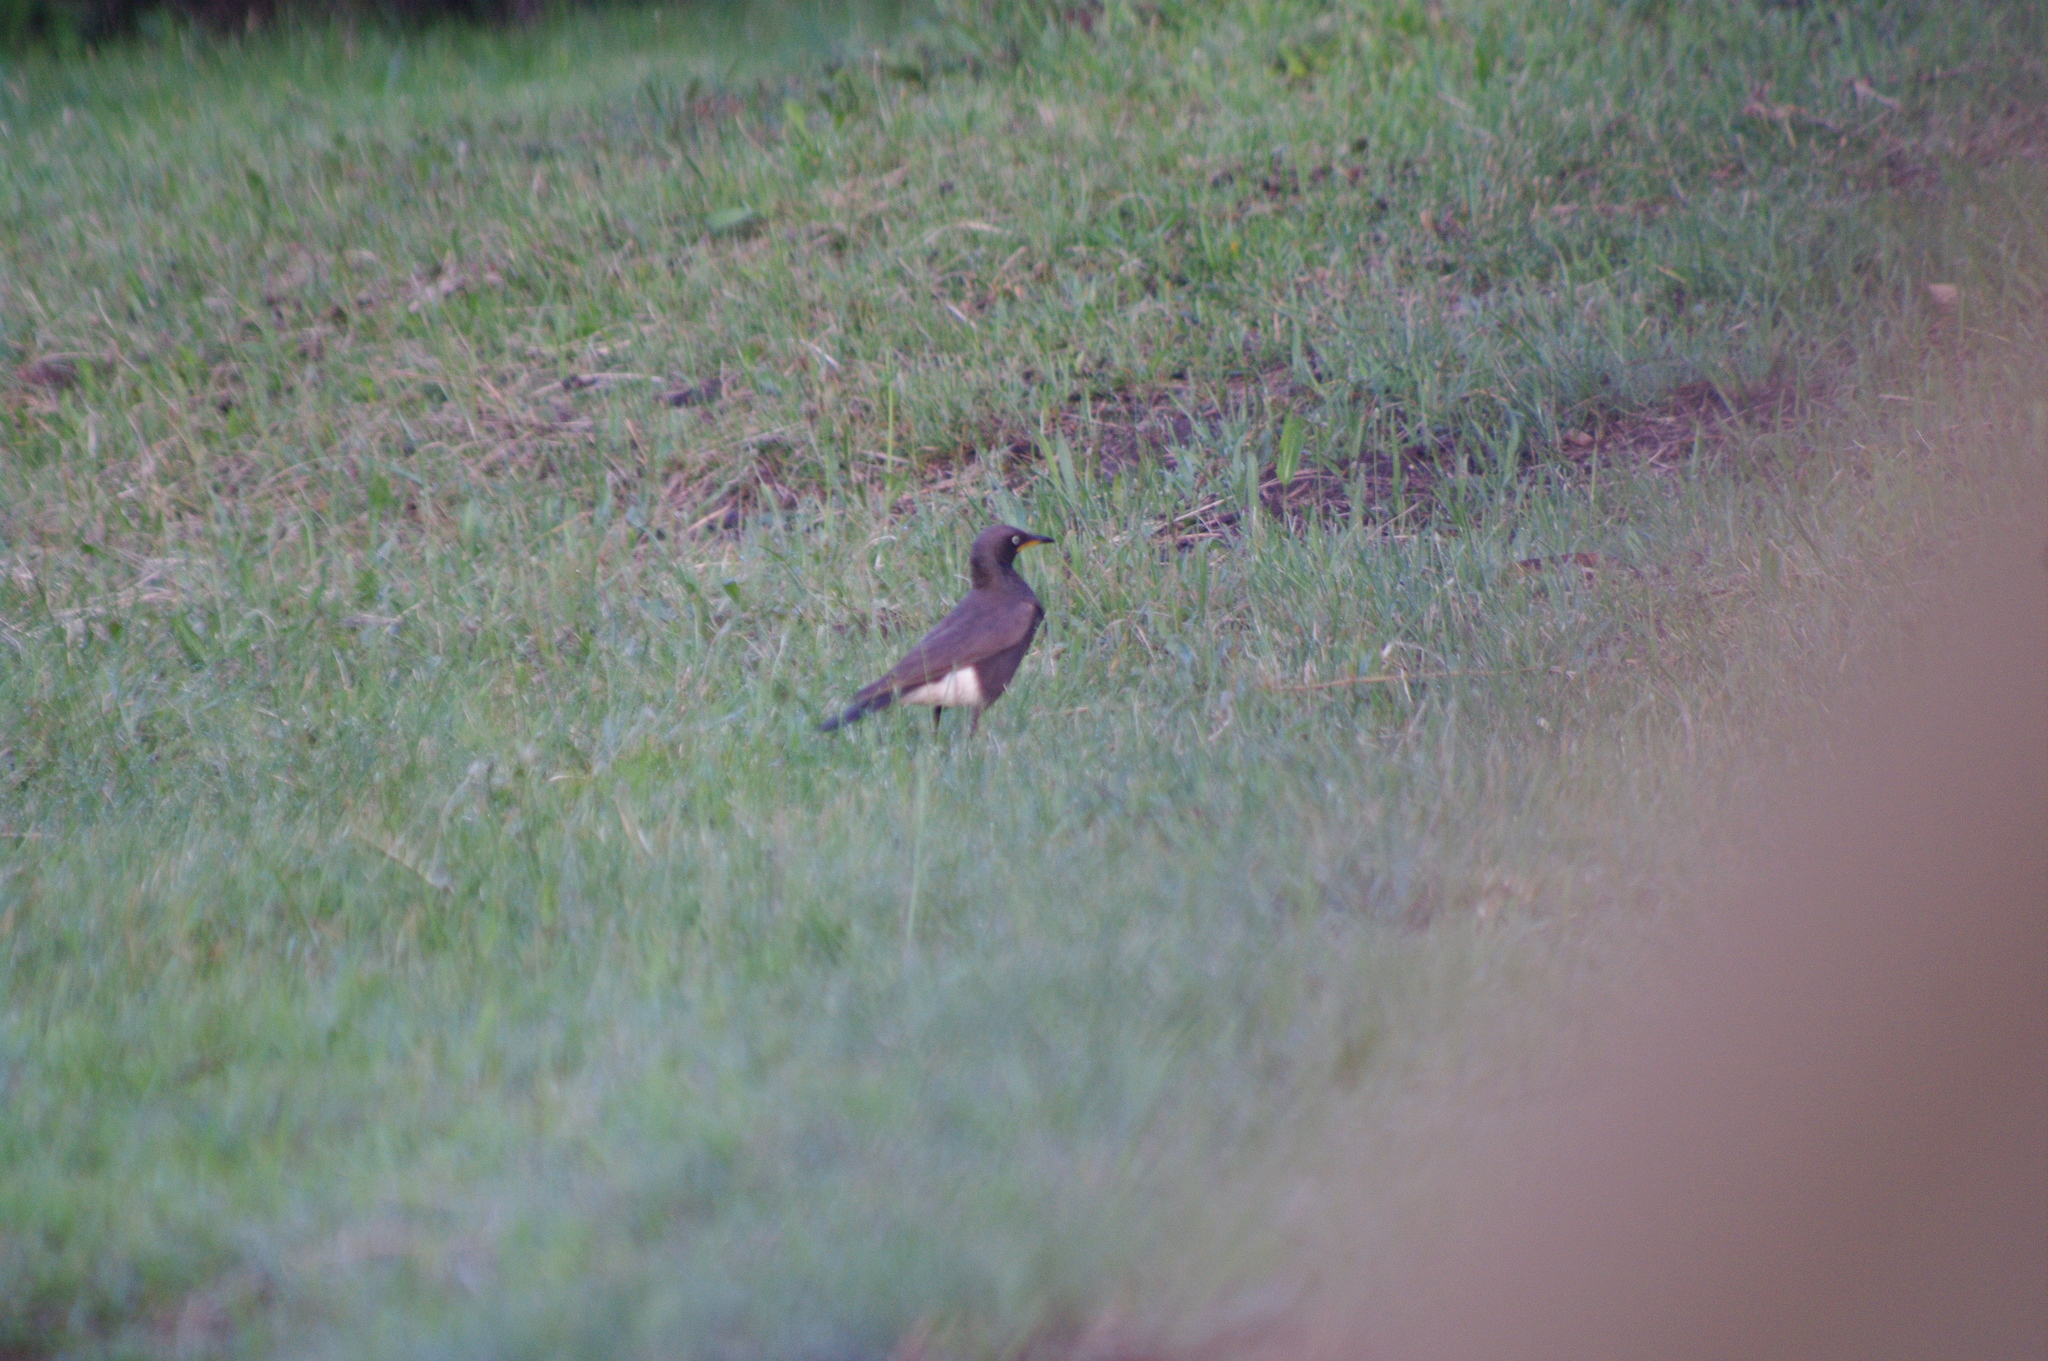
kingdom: Animalia
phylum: Chordata
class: Aves
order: Passeriformes
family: Sturnidae
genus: Lamprotornis
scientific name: Lamprotornis bicolor
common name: Pied starling
